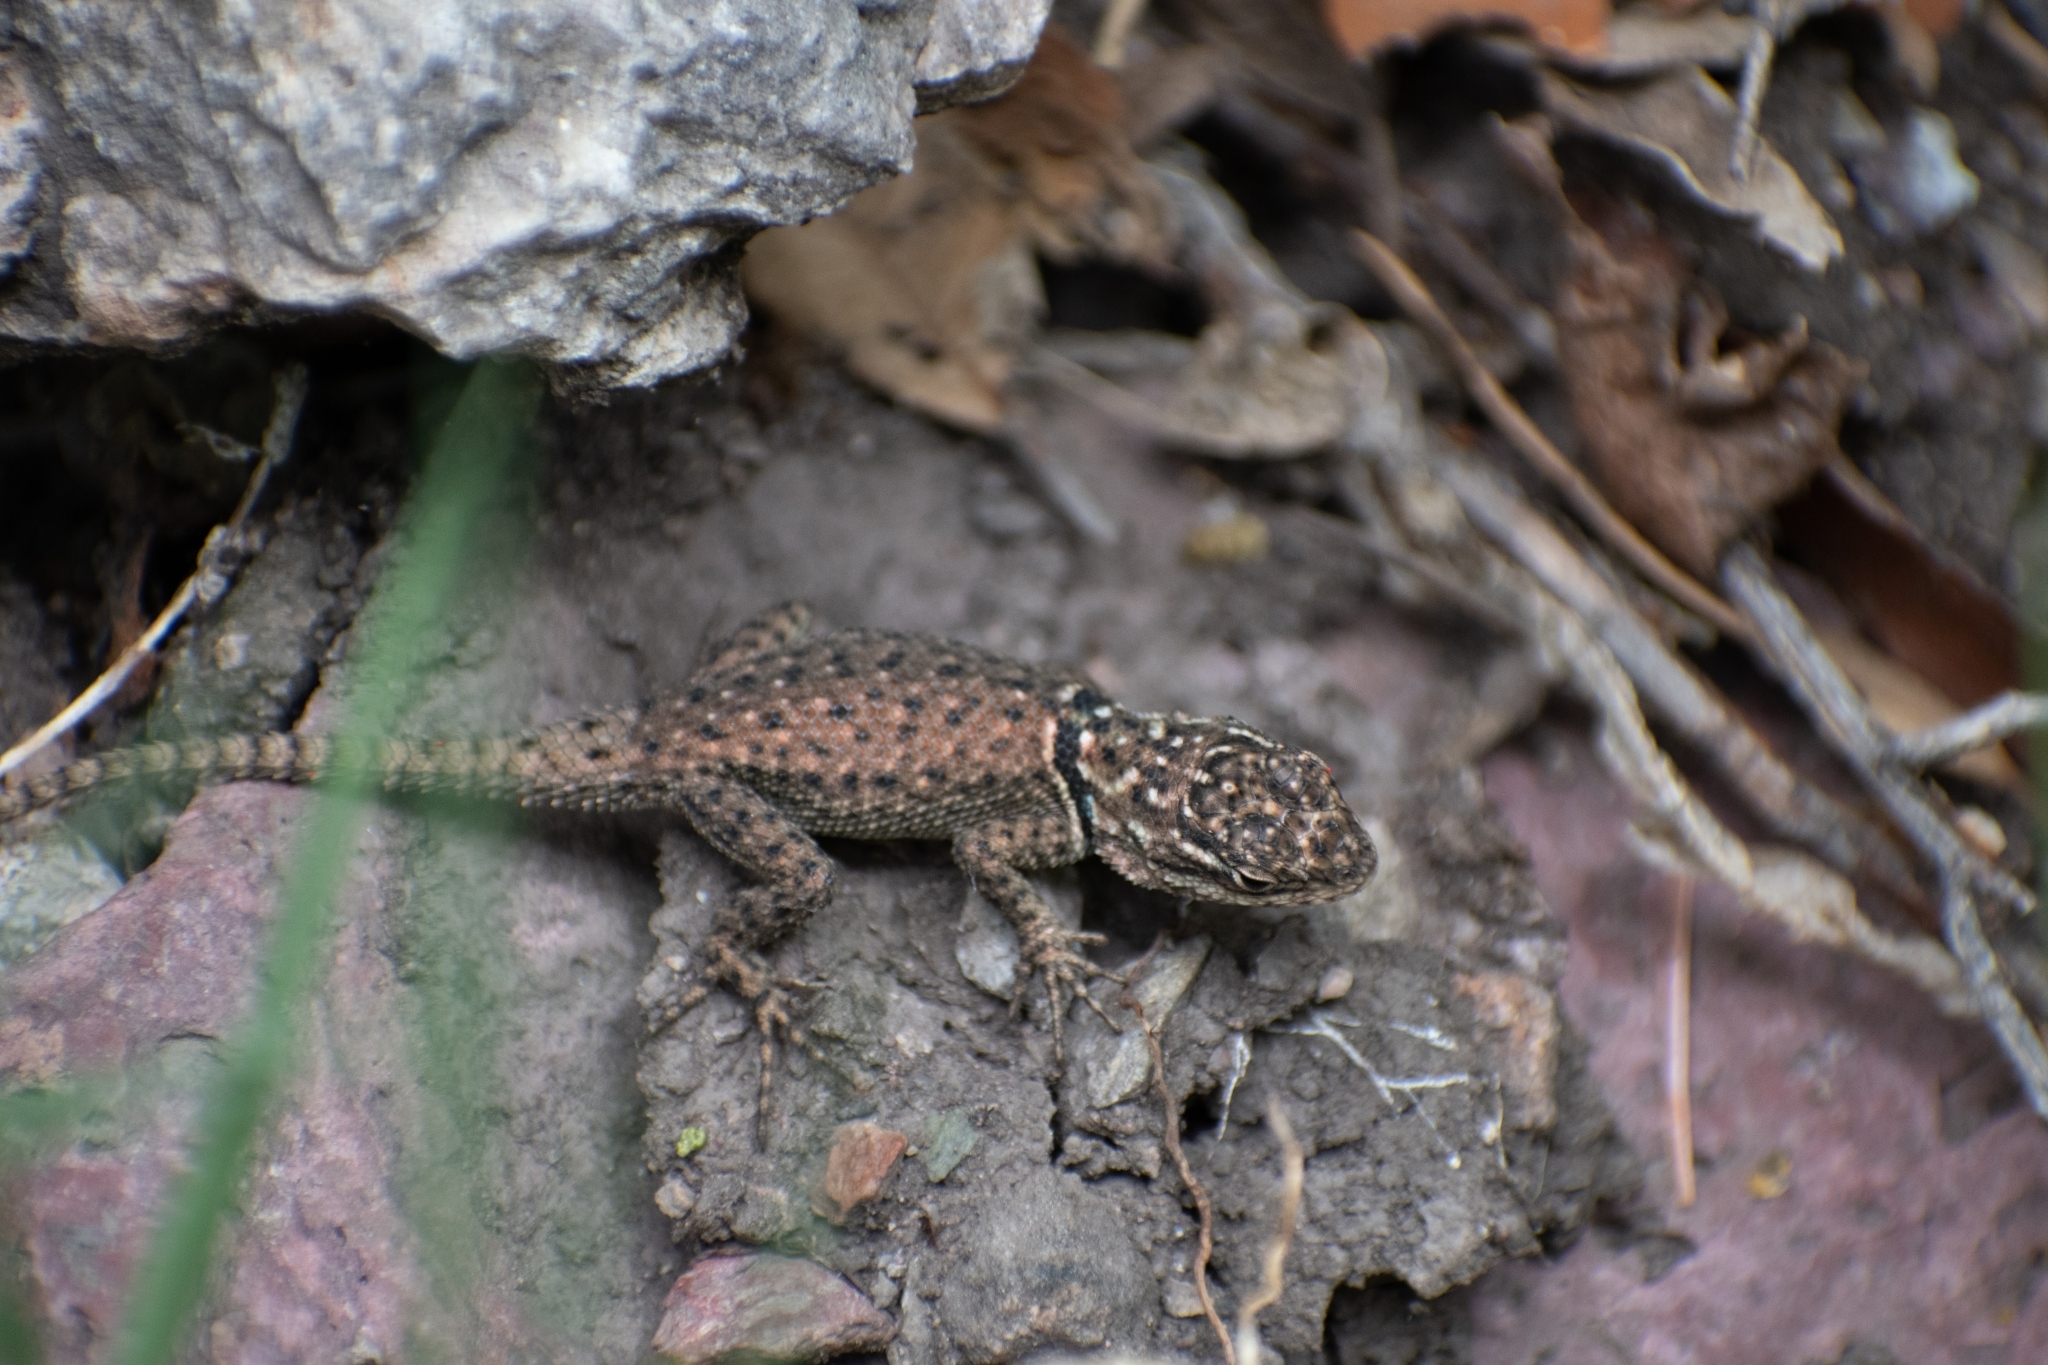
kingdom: Animalia
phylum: Chordata
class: Squamata
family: Phrynosomatidae
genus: Sceloporus
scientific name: Sceloporus jarrovii
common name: Yarrow's spiny lizard
